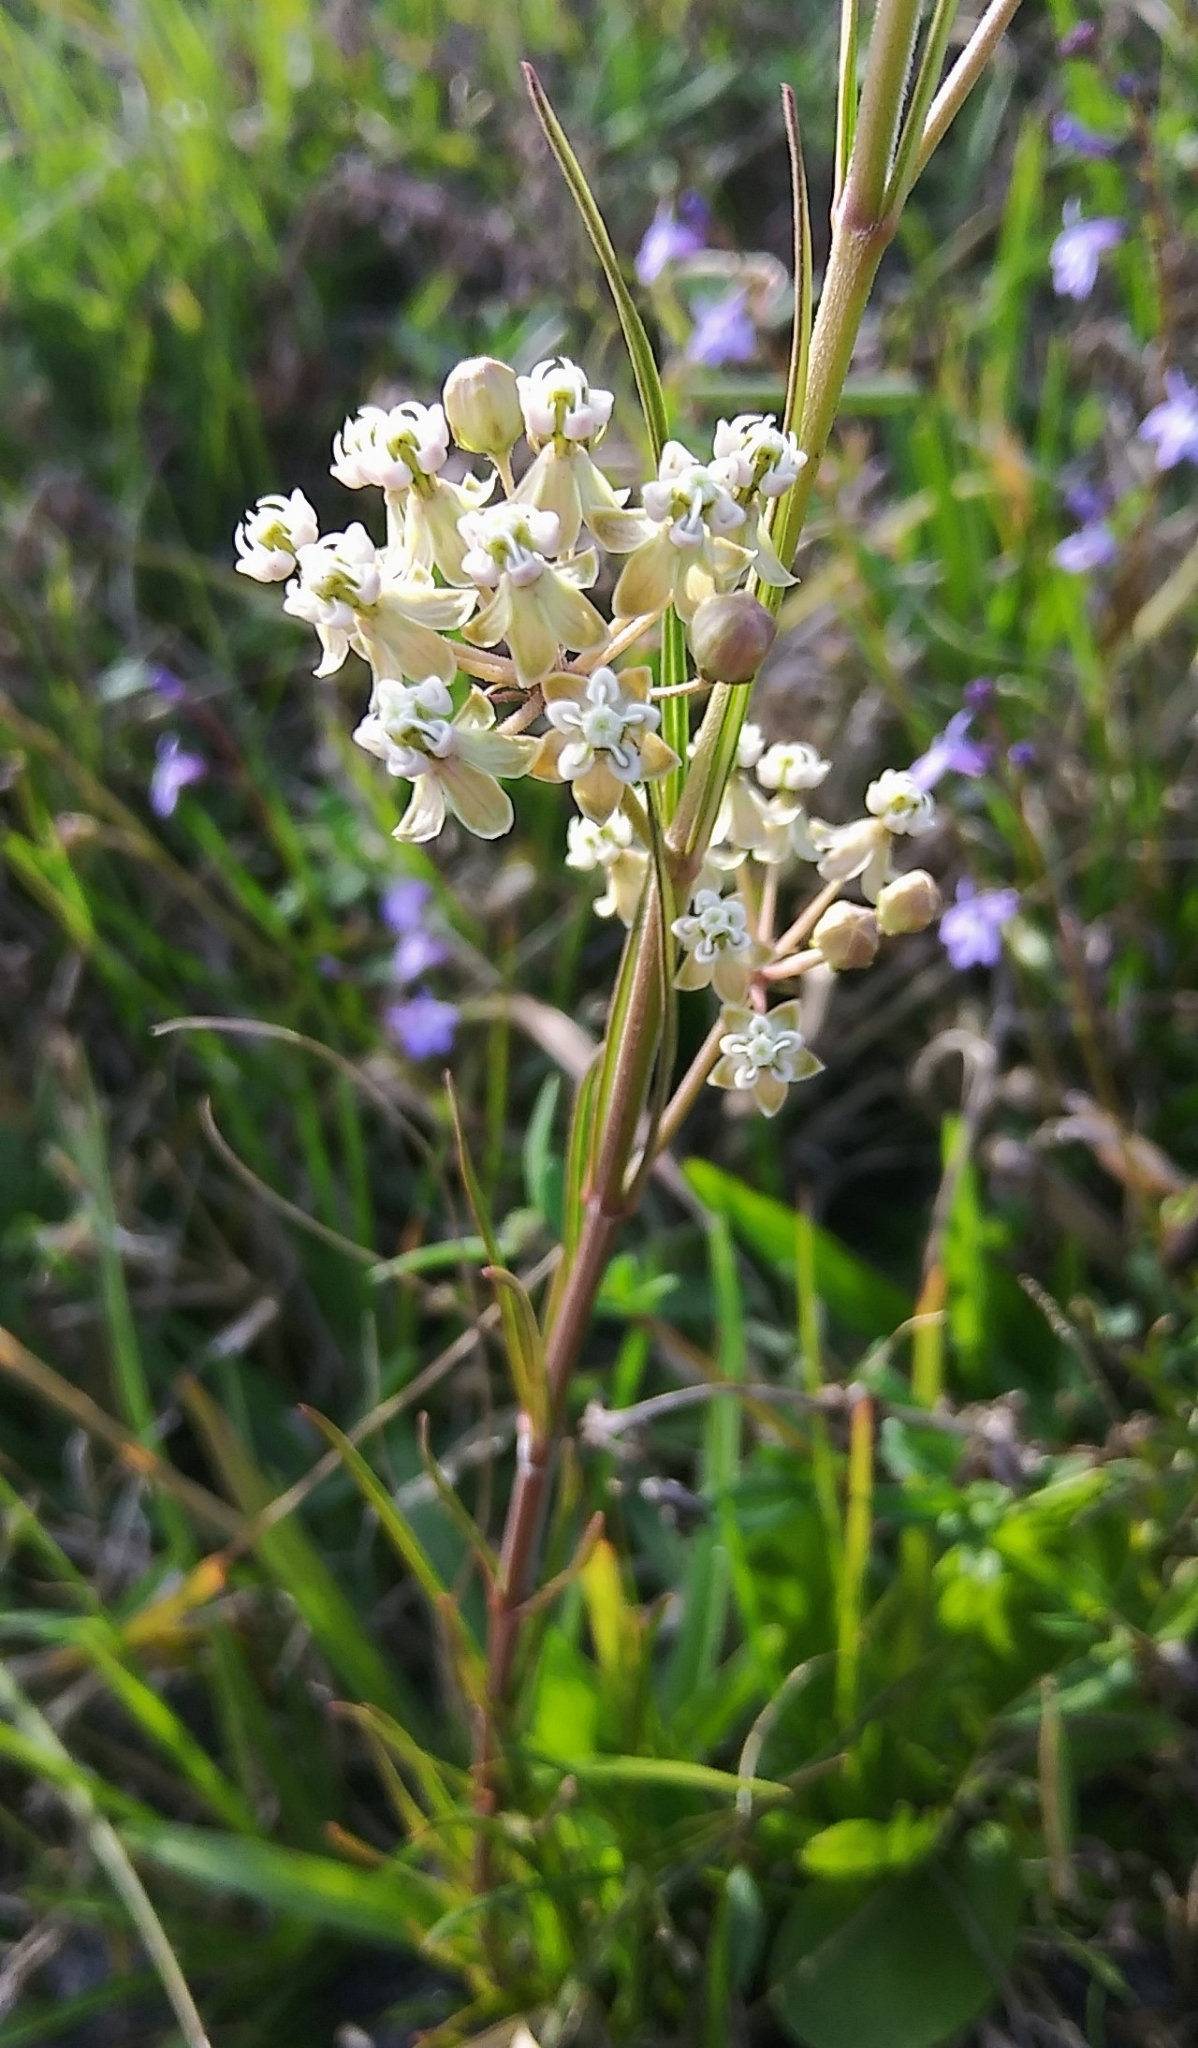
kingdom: Plantae
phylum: Tracheophyta
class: Magnoliopsida
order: Gentianales
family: Apocynaceae
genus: Asclepias
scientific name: Asclepias verticillata
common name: Eastern whorled milkweed
